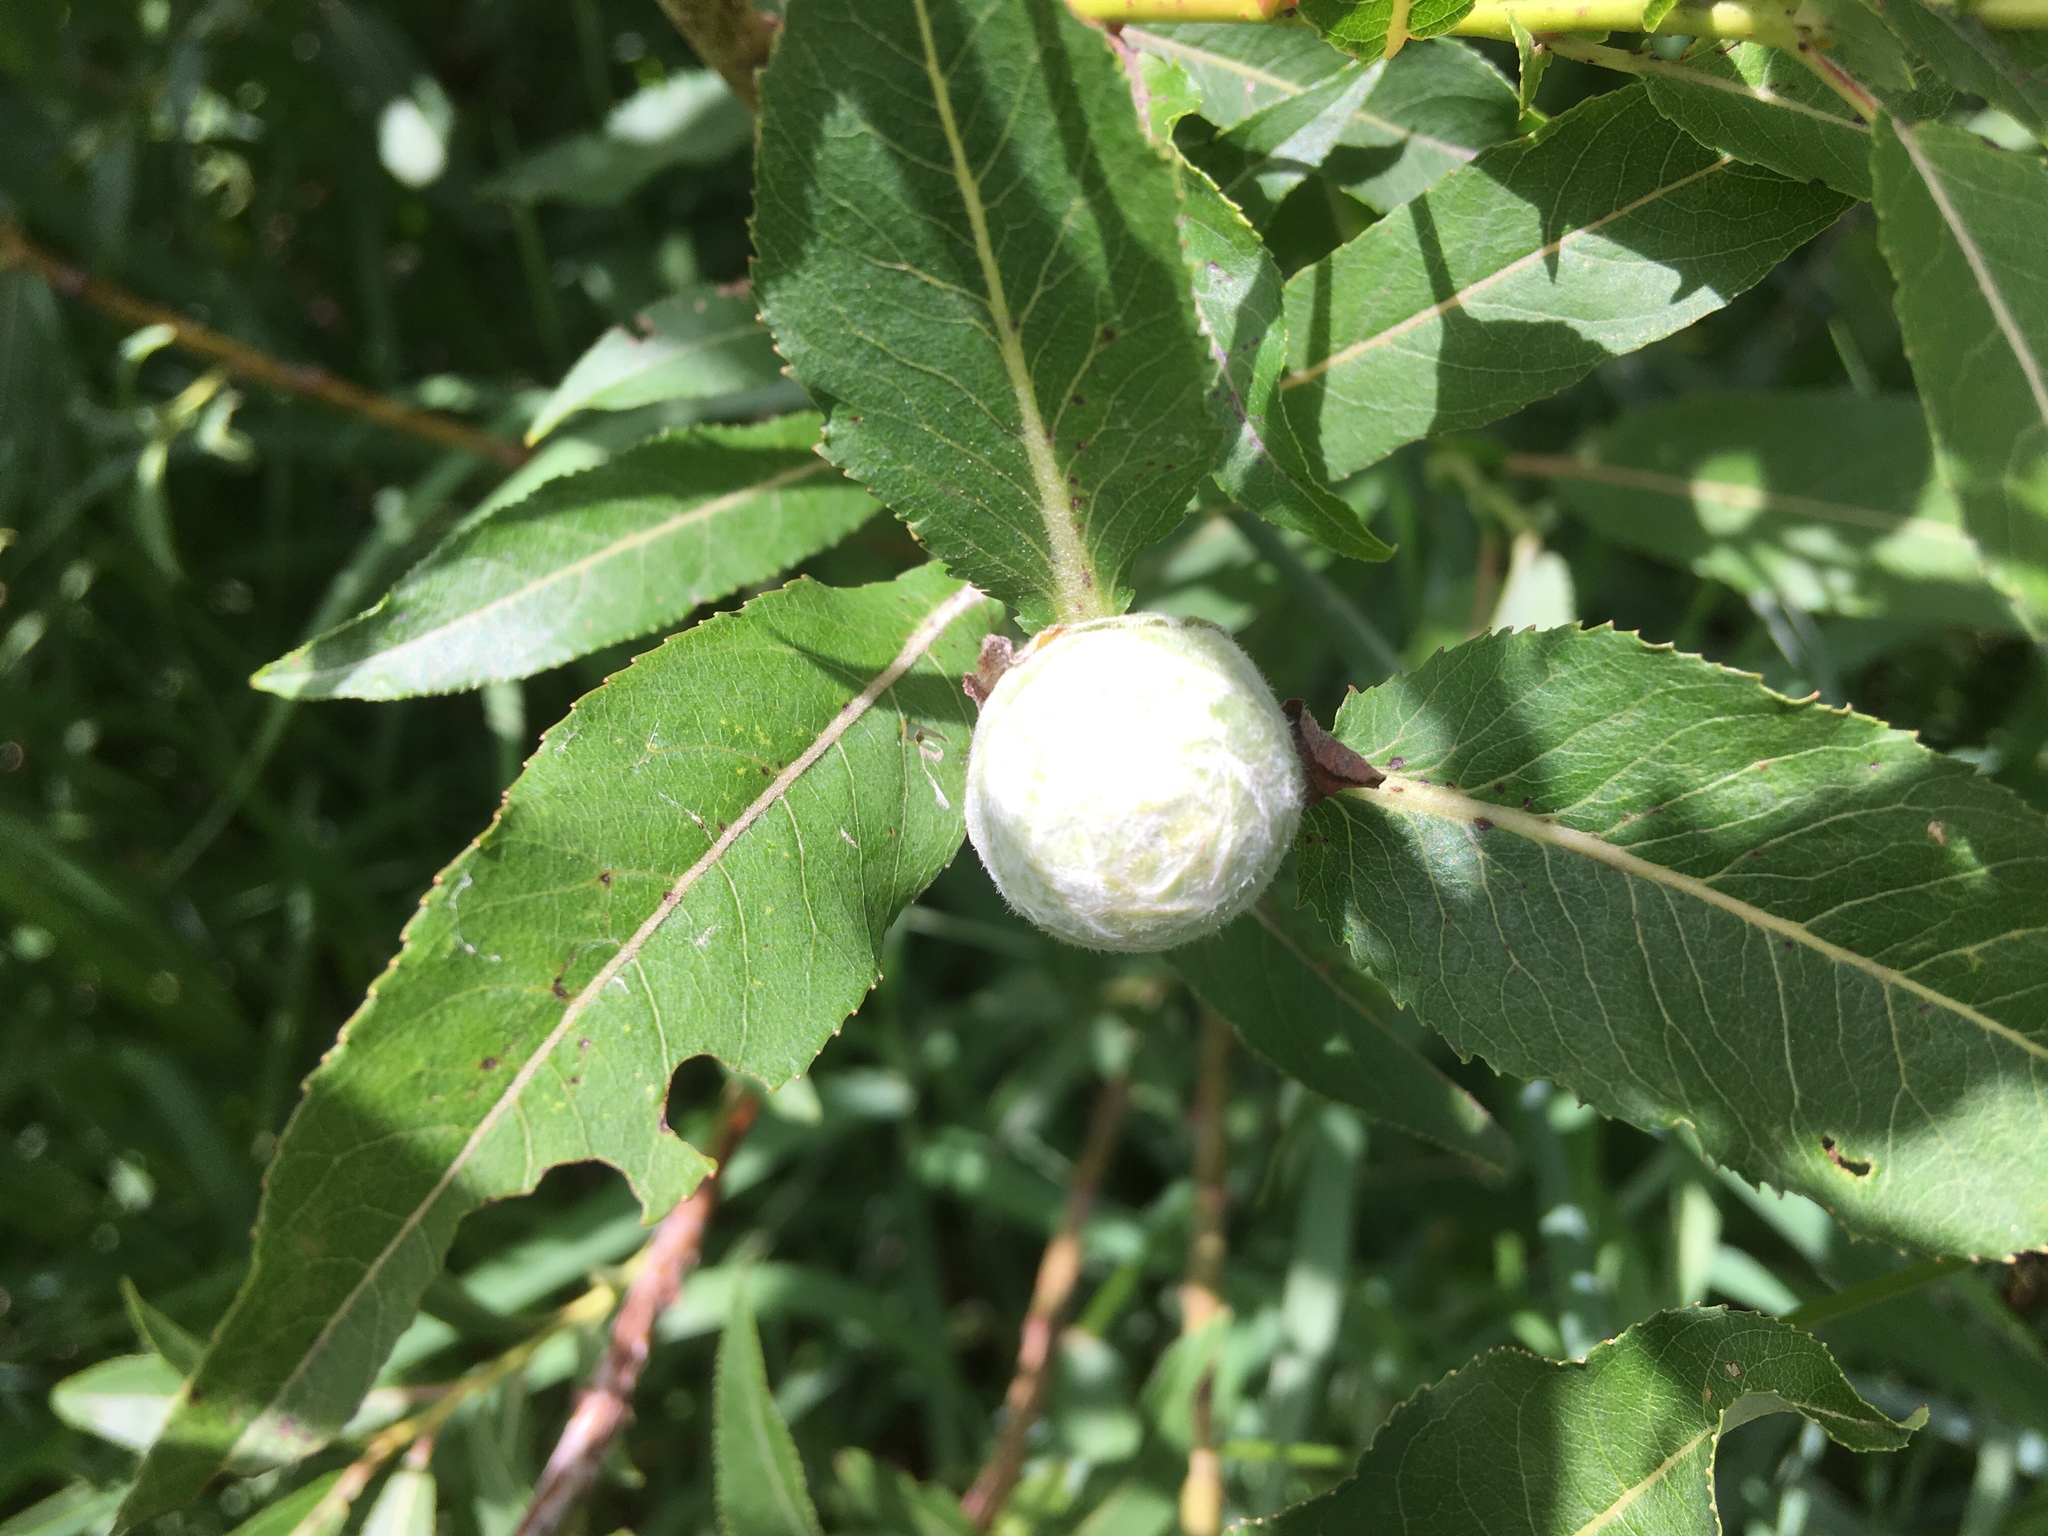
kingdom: Animalia
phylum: Arthropoda
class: Insecta
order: Diptera
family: Cecidomyiidae
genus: Rabdophaga
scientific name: Rabdophaga strobiloides
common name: Willow pinecone gall midge
